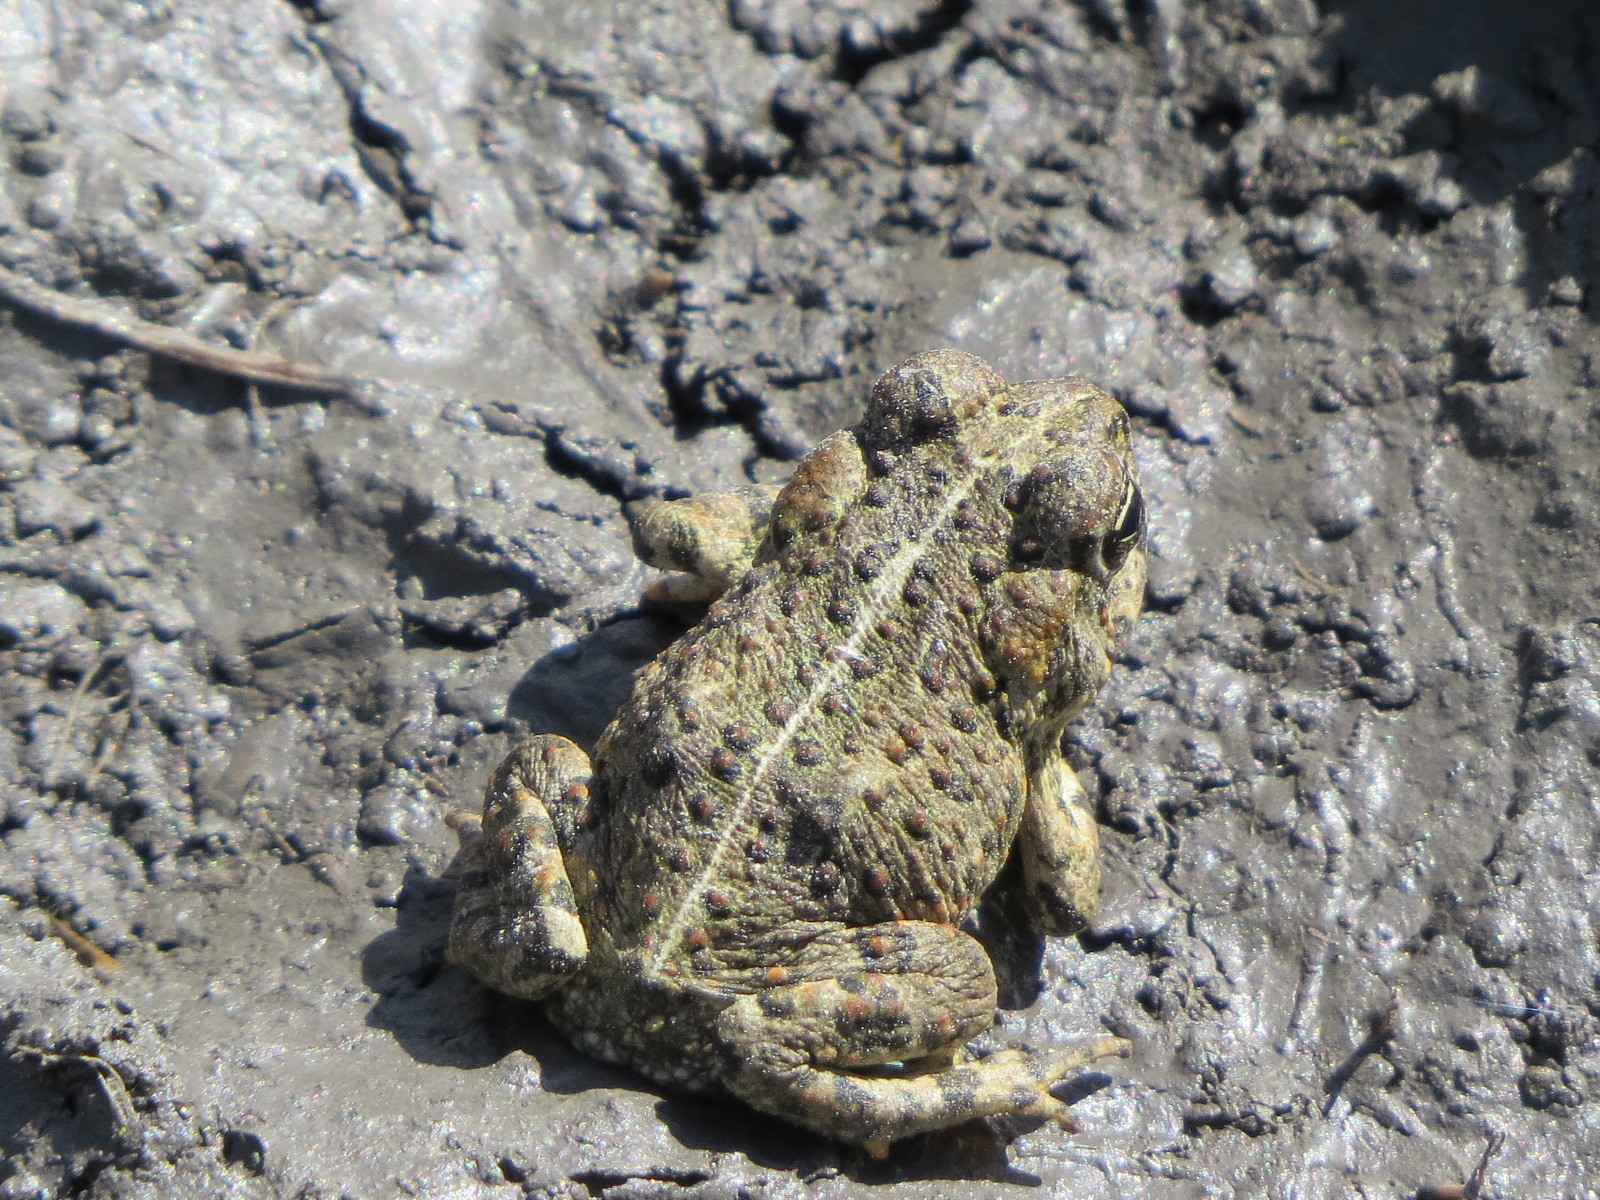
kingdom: Animalia
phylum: Chordata
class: Amphibia
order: Anura
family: Bufonidae
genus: Anaxyrus
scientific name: Anaxyrus boreas
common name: Western toad
